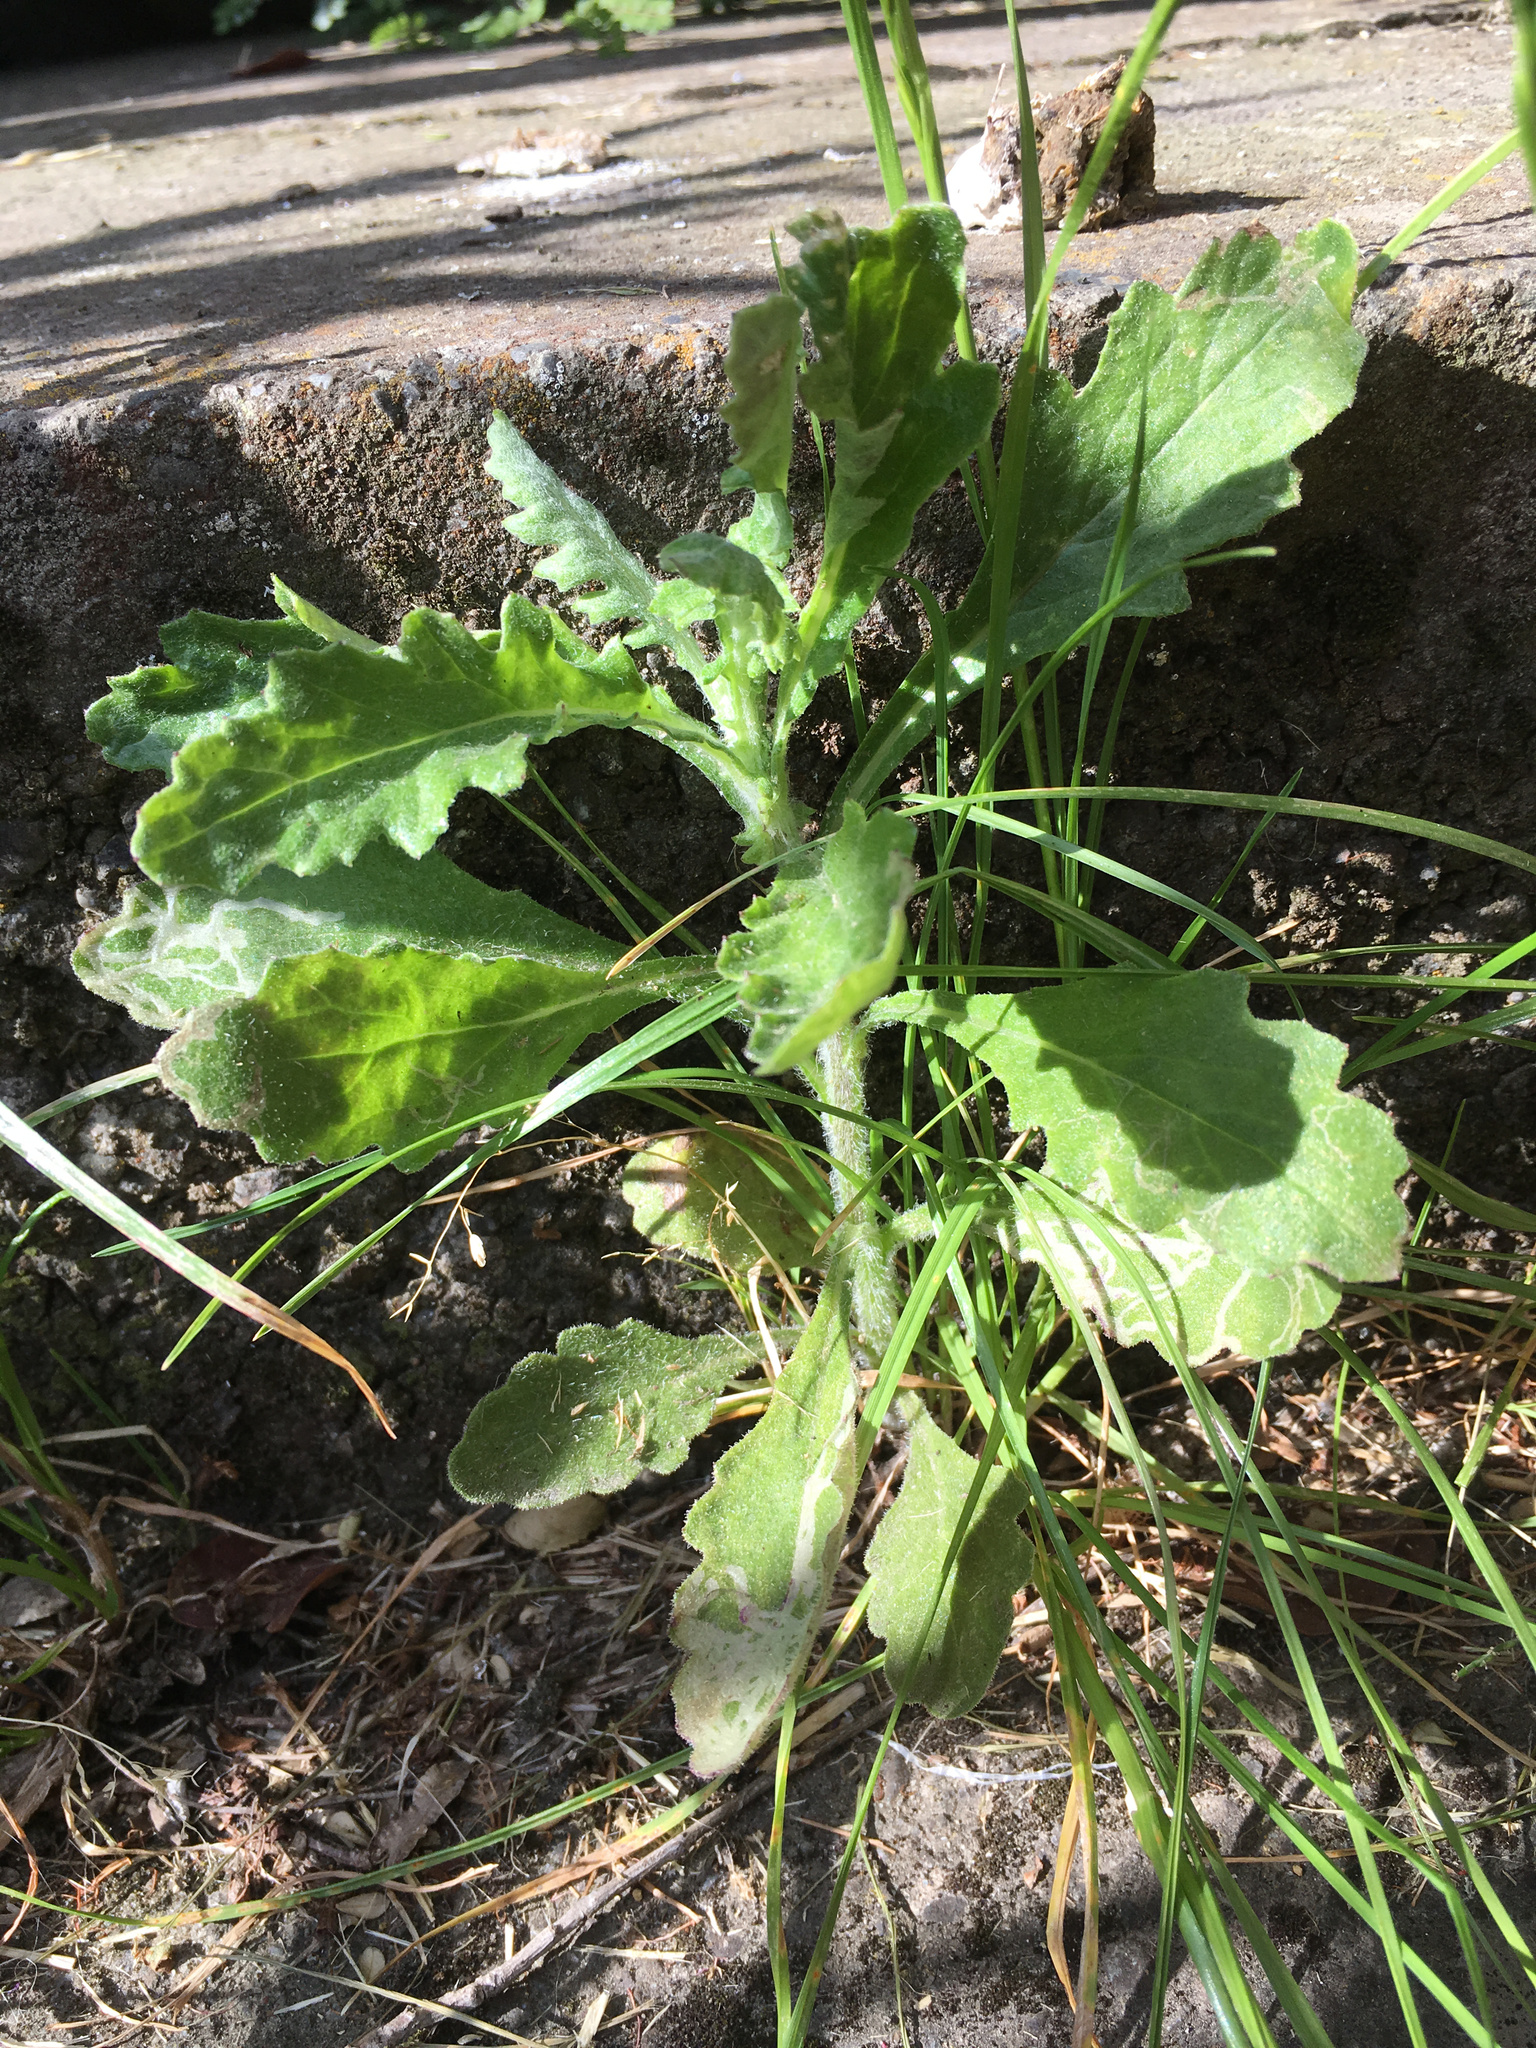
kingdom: Plantae
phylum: Tracheophyta
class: Magnoliopsida
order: Asterales
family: Asteraceae
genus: Senecio
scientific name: Senecio glomeratus
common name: Cutleaf burnweed
